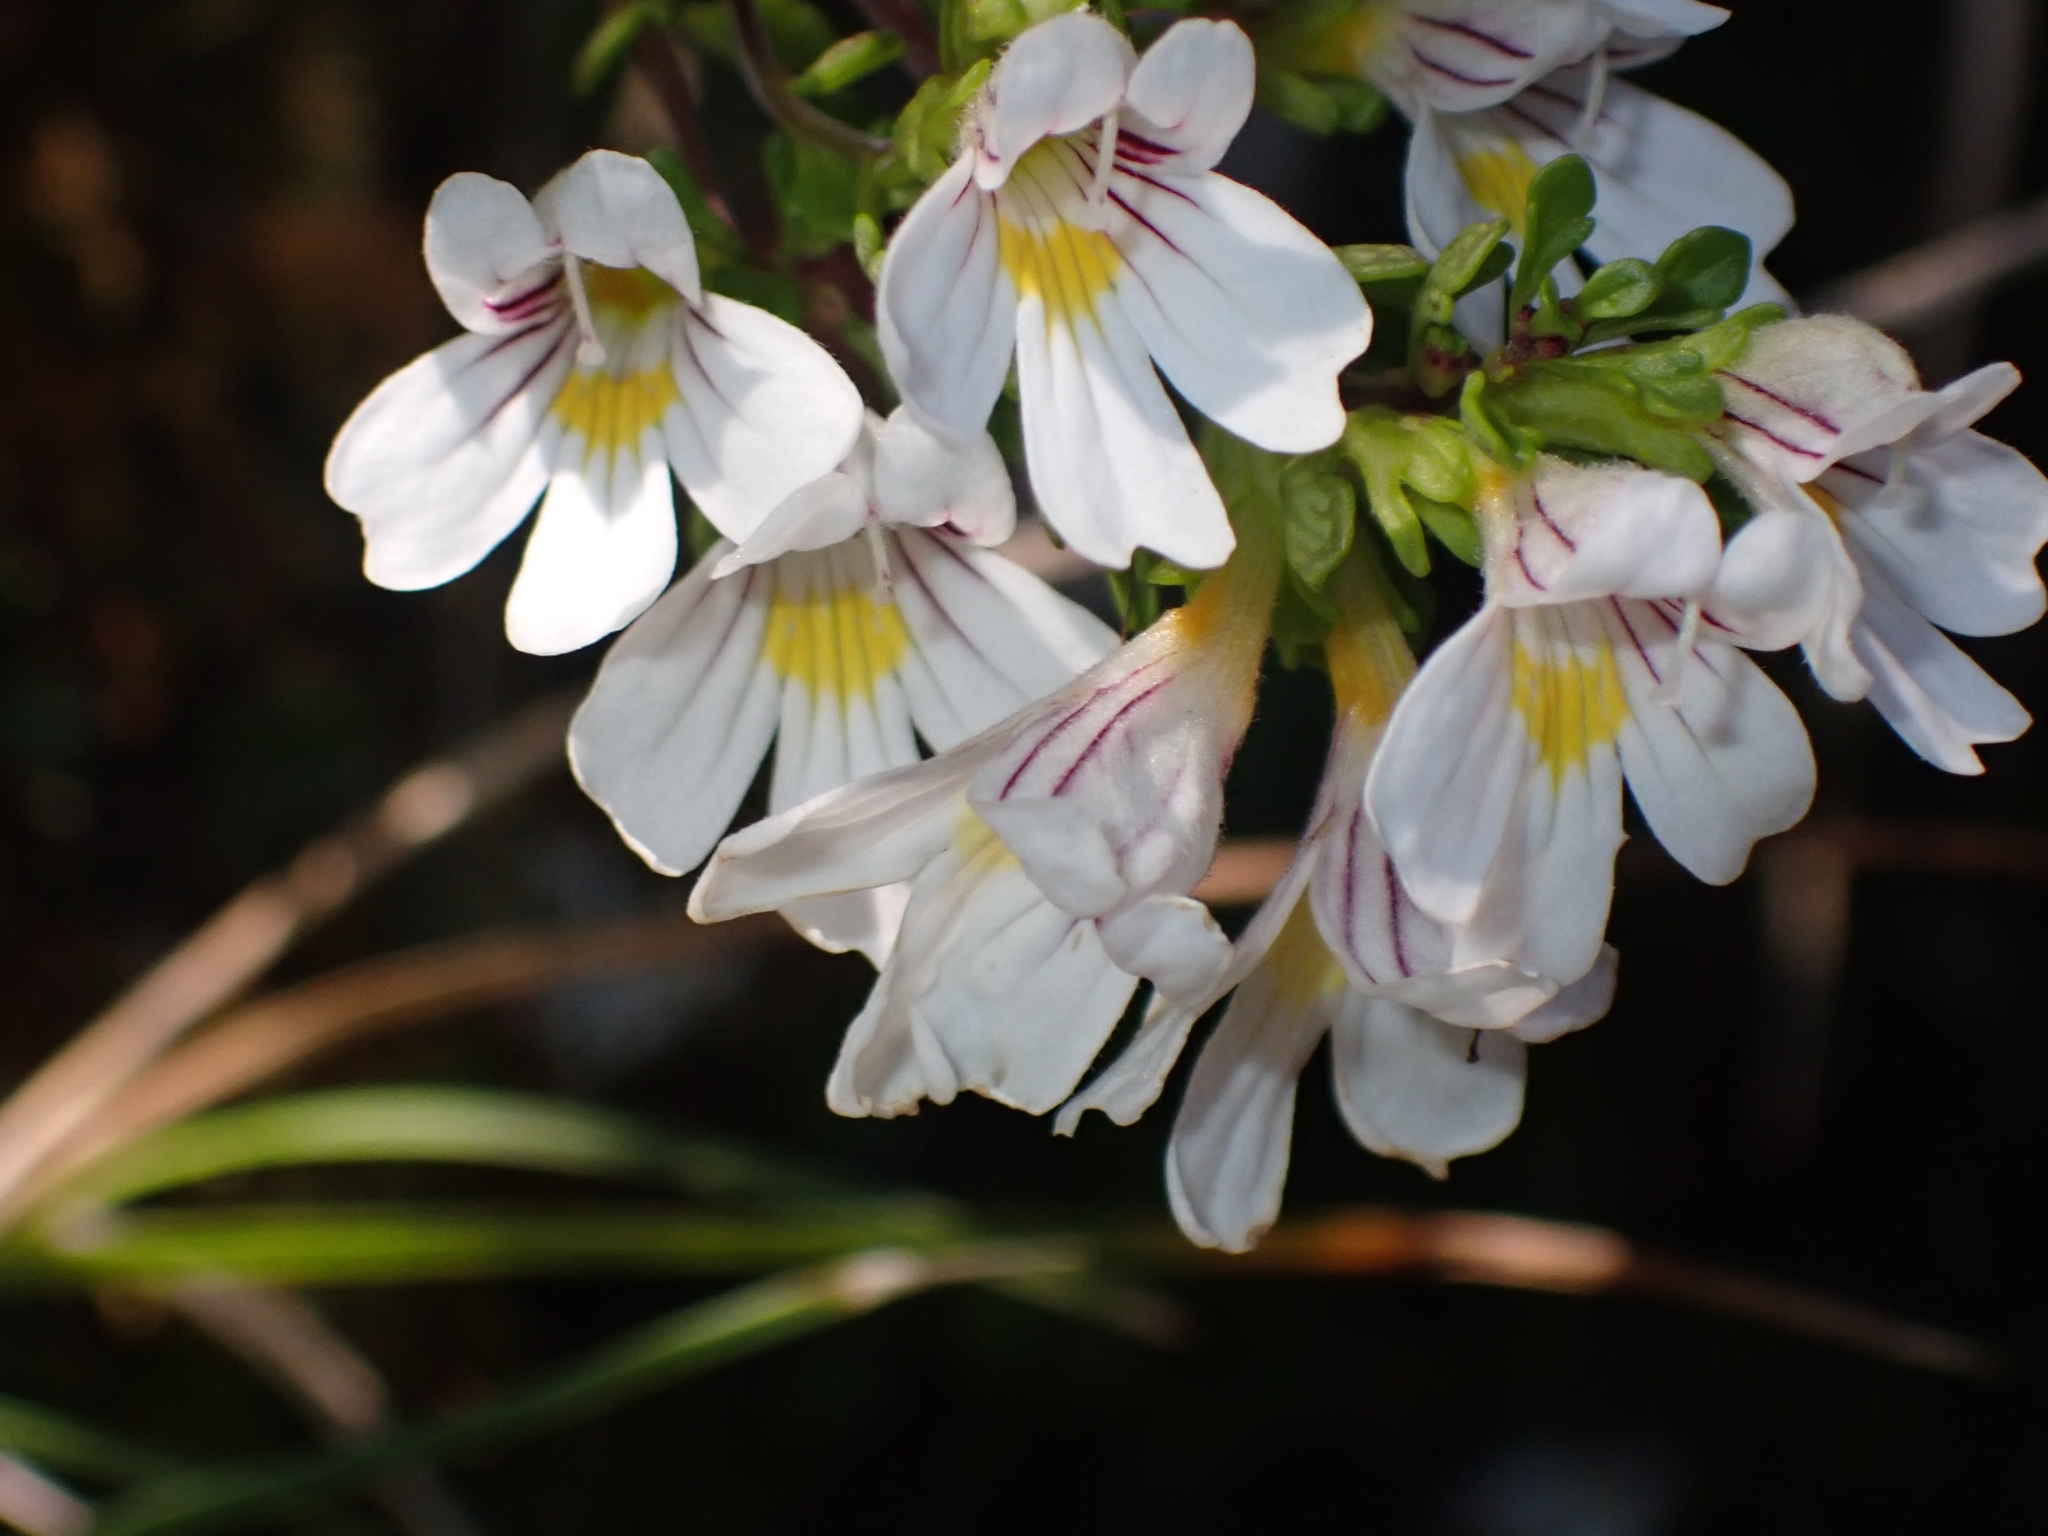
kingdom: Plantae
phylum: Tracheophyta
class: Magnoliopsida
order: Lamiales
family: Orobanchaceae
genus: Euphrasia
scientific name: Euphrasia cuneata
